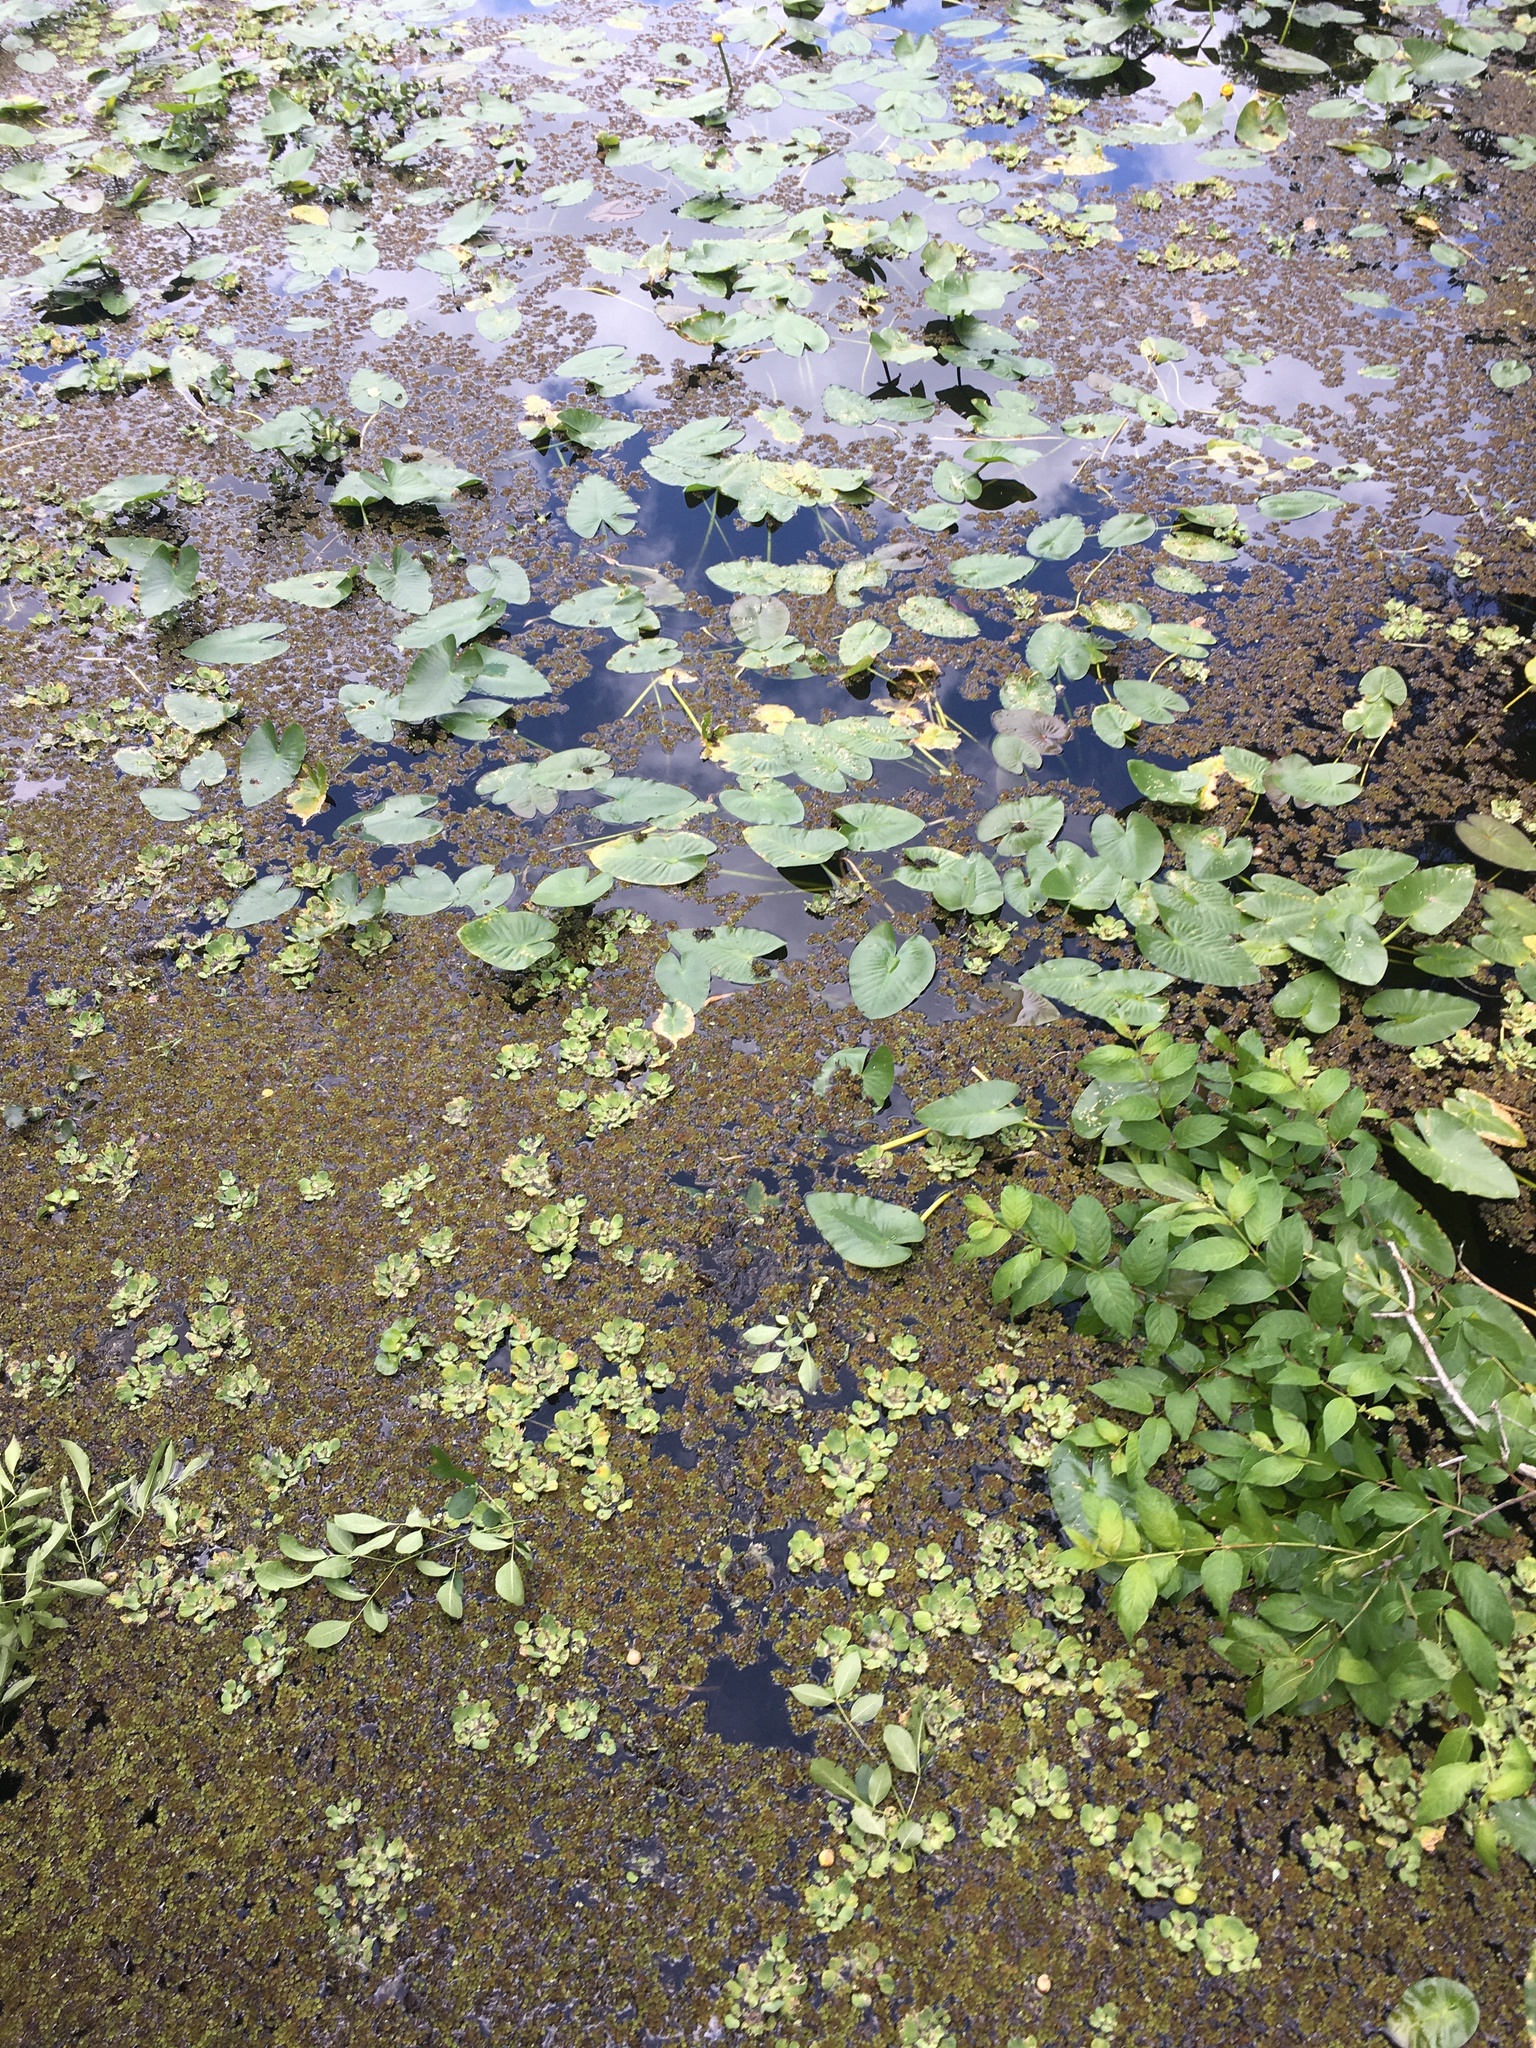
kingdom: Plantae
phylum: Tracheophyta
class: Liliopsida
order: Alismatales
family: Araceae
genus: Pistia
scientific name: Pistia stratiotes
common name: Water lettuce
